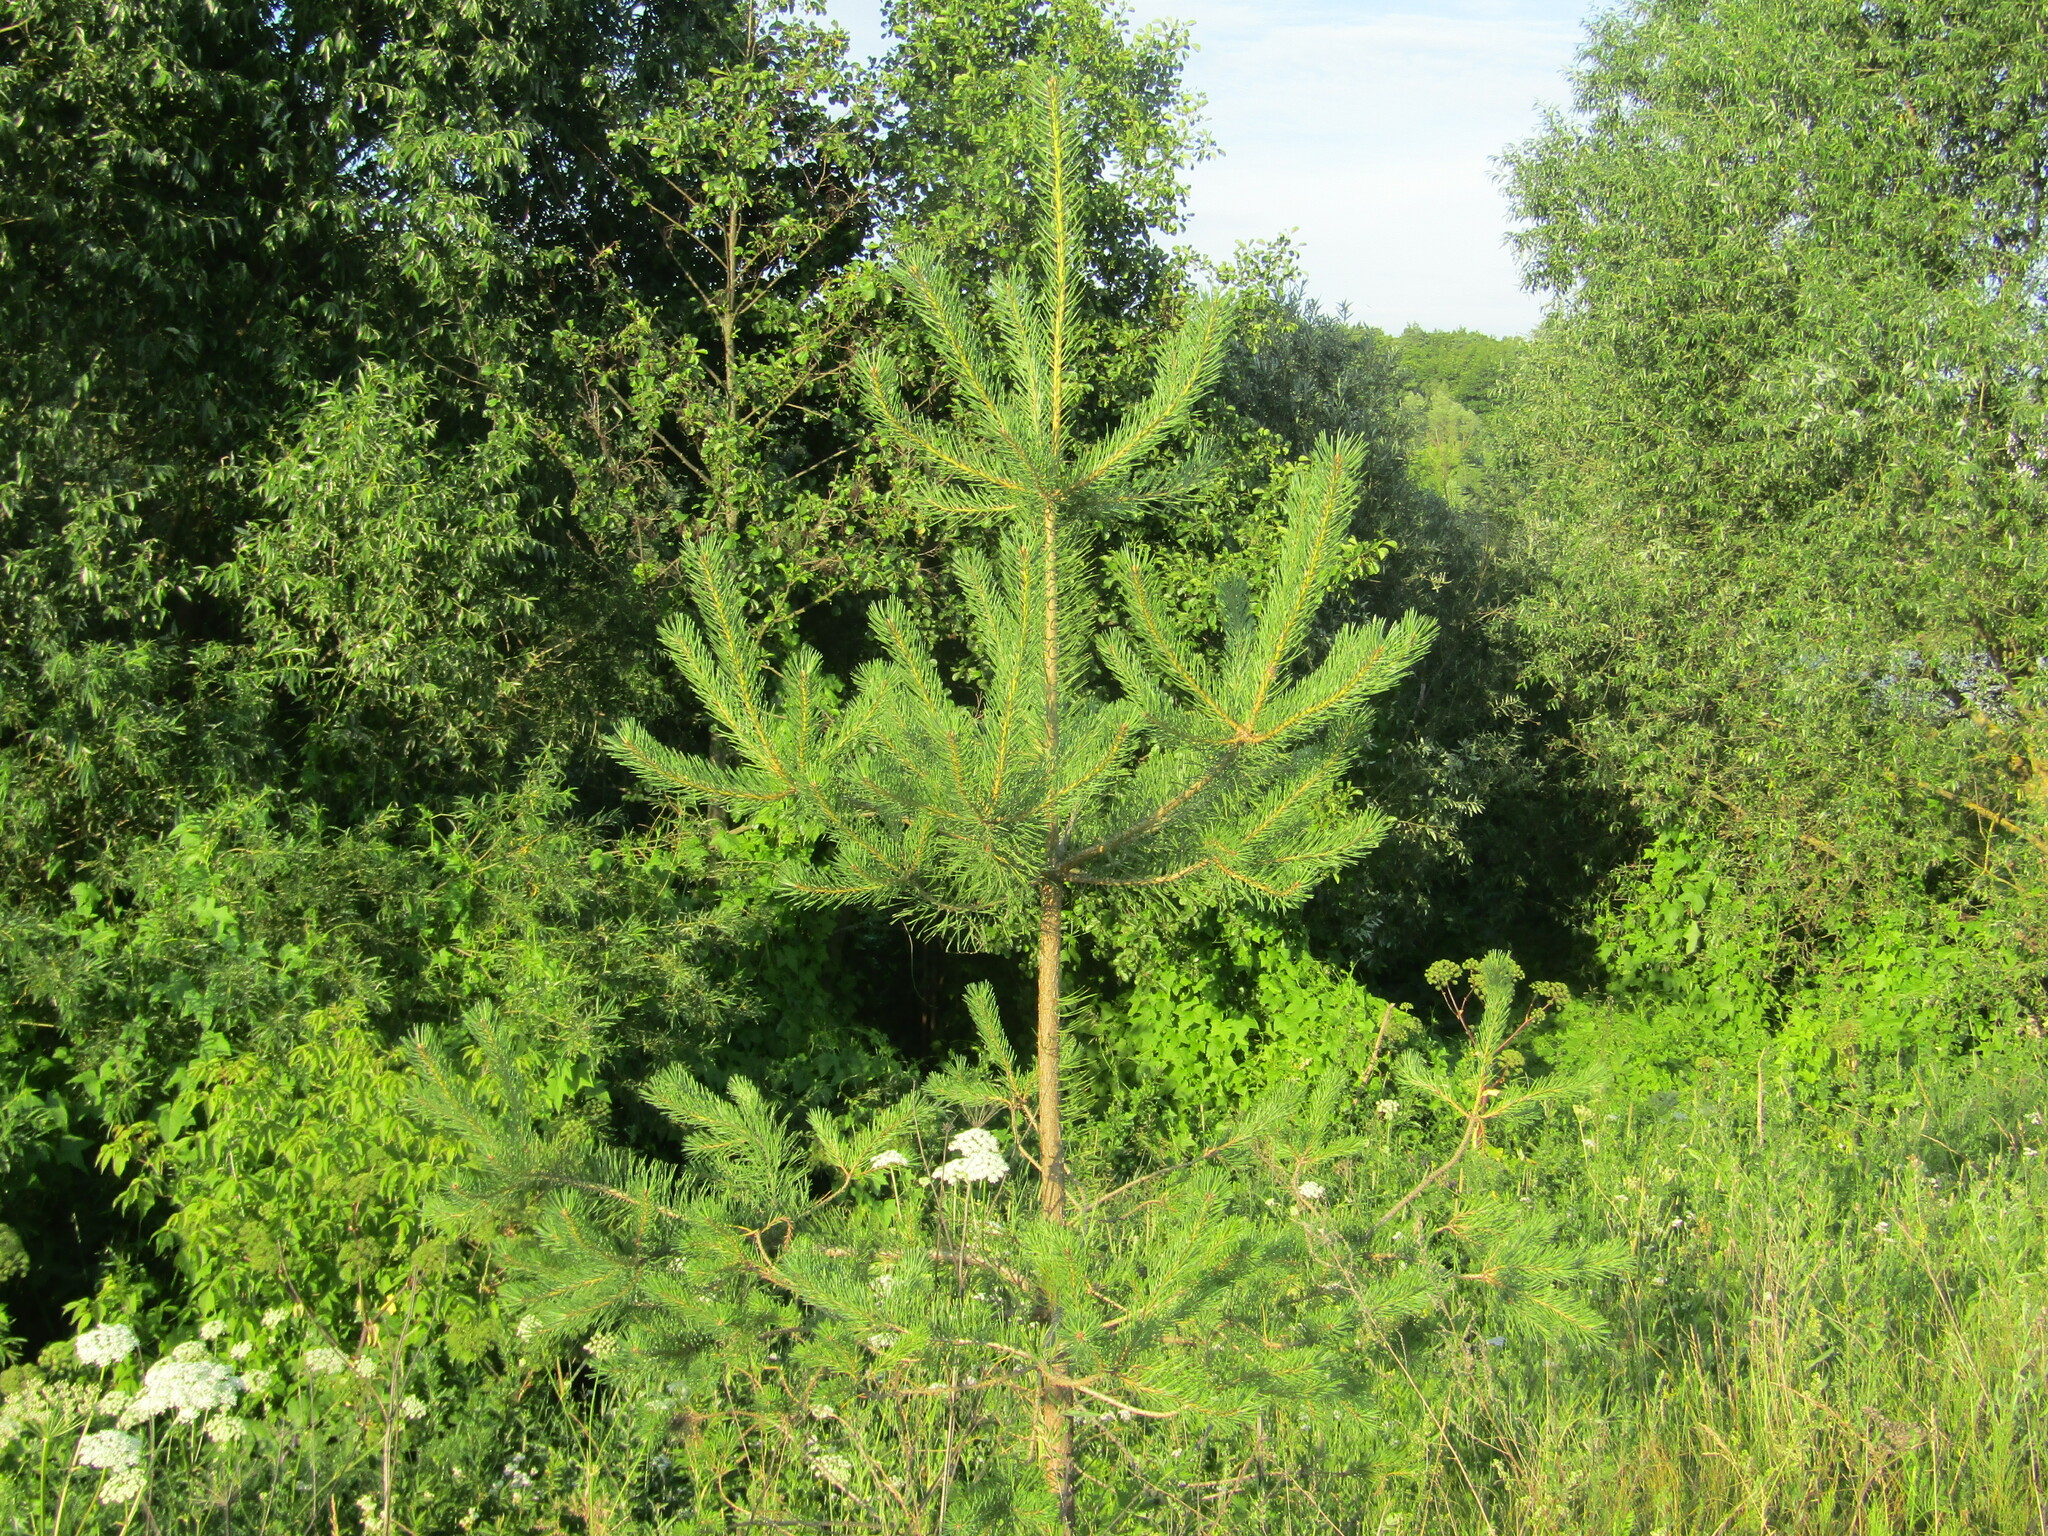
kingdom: Plantae
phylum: Tracheophyta
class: Pinopsida
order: Pinales
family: Pinaceae
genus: Pinus
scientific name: Pinus sylvestris
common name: Scots pine
